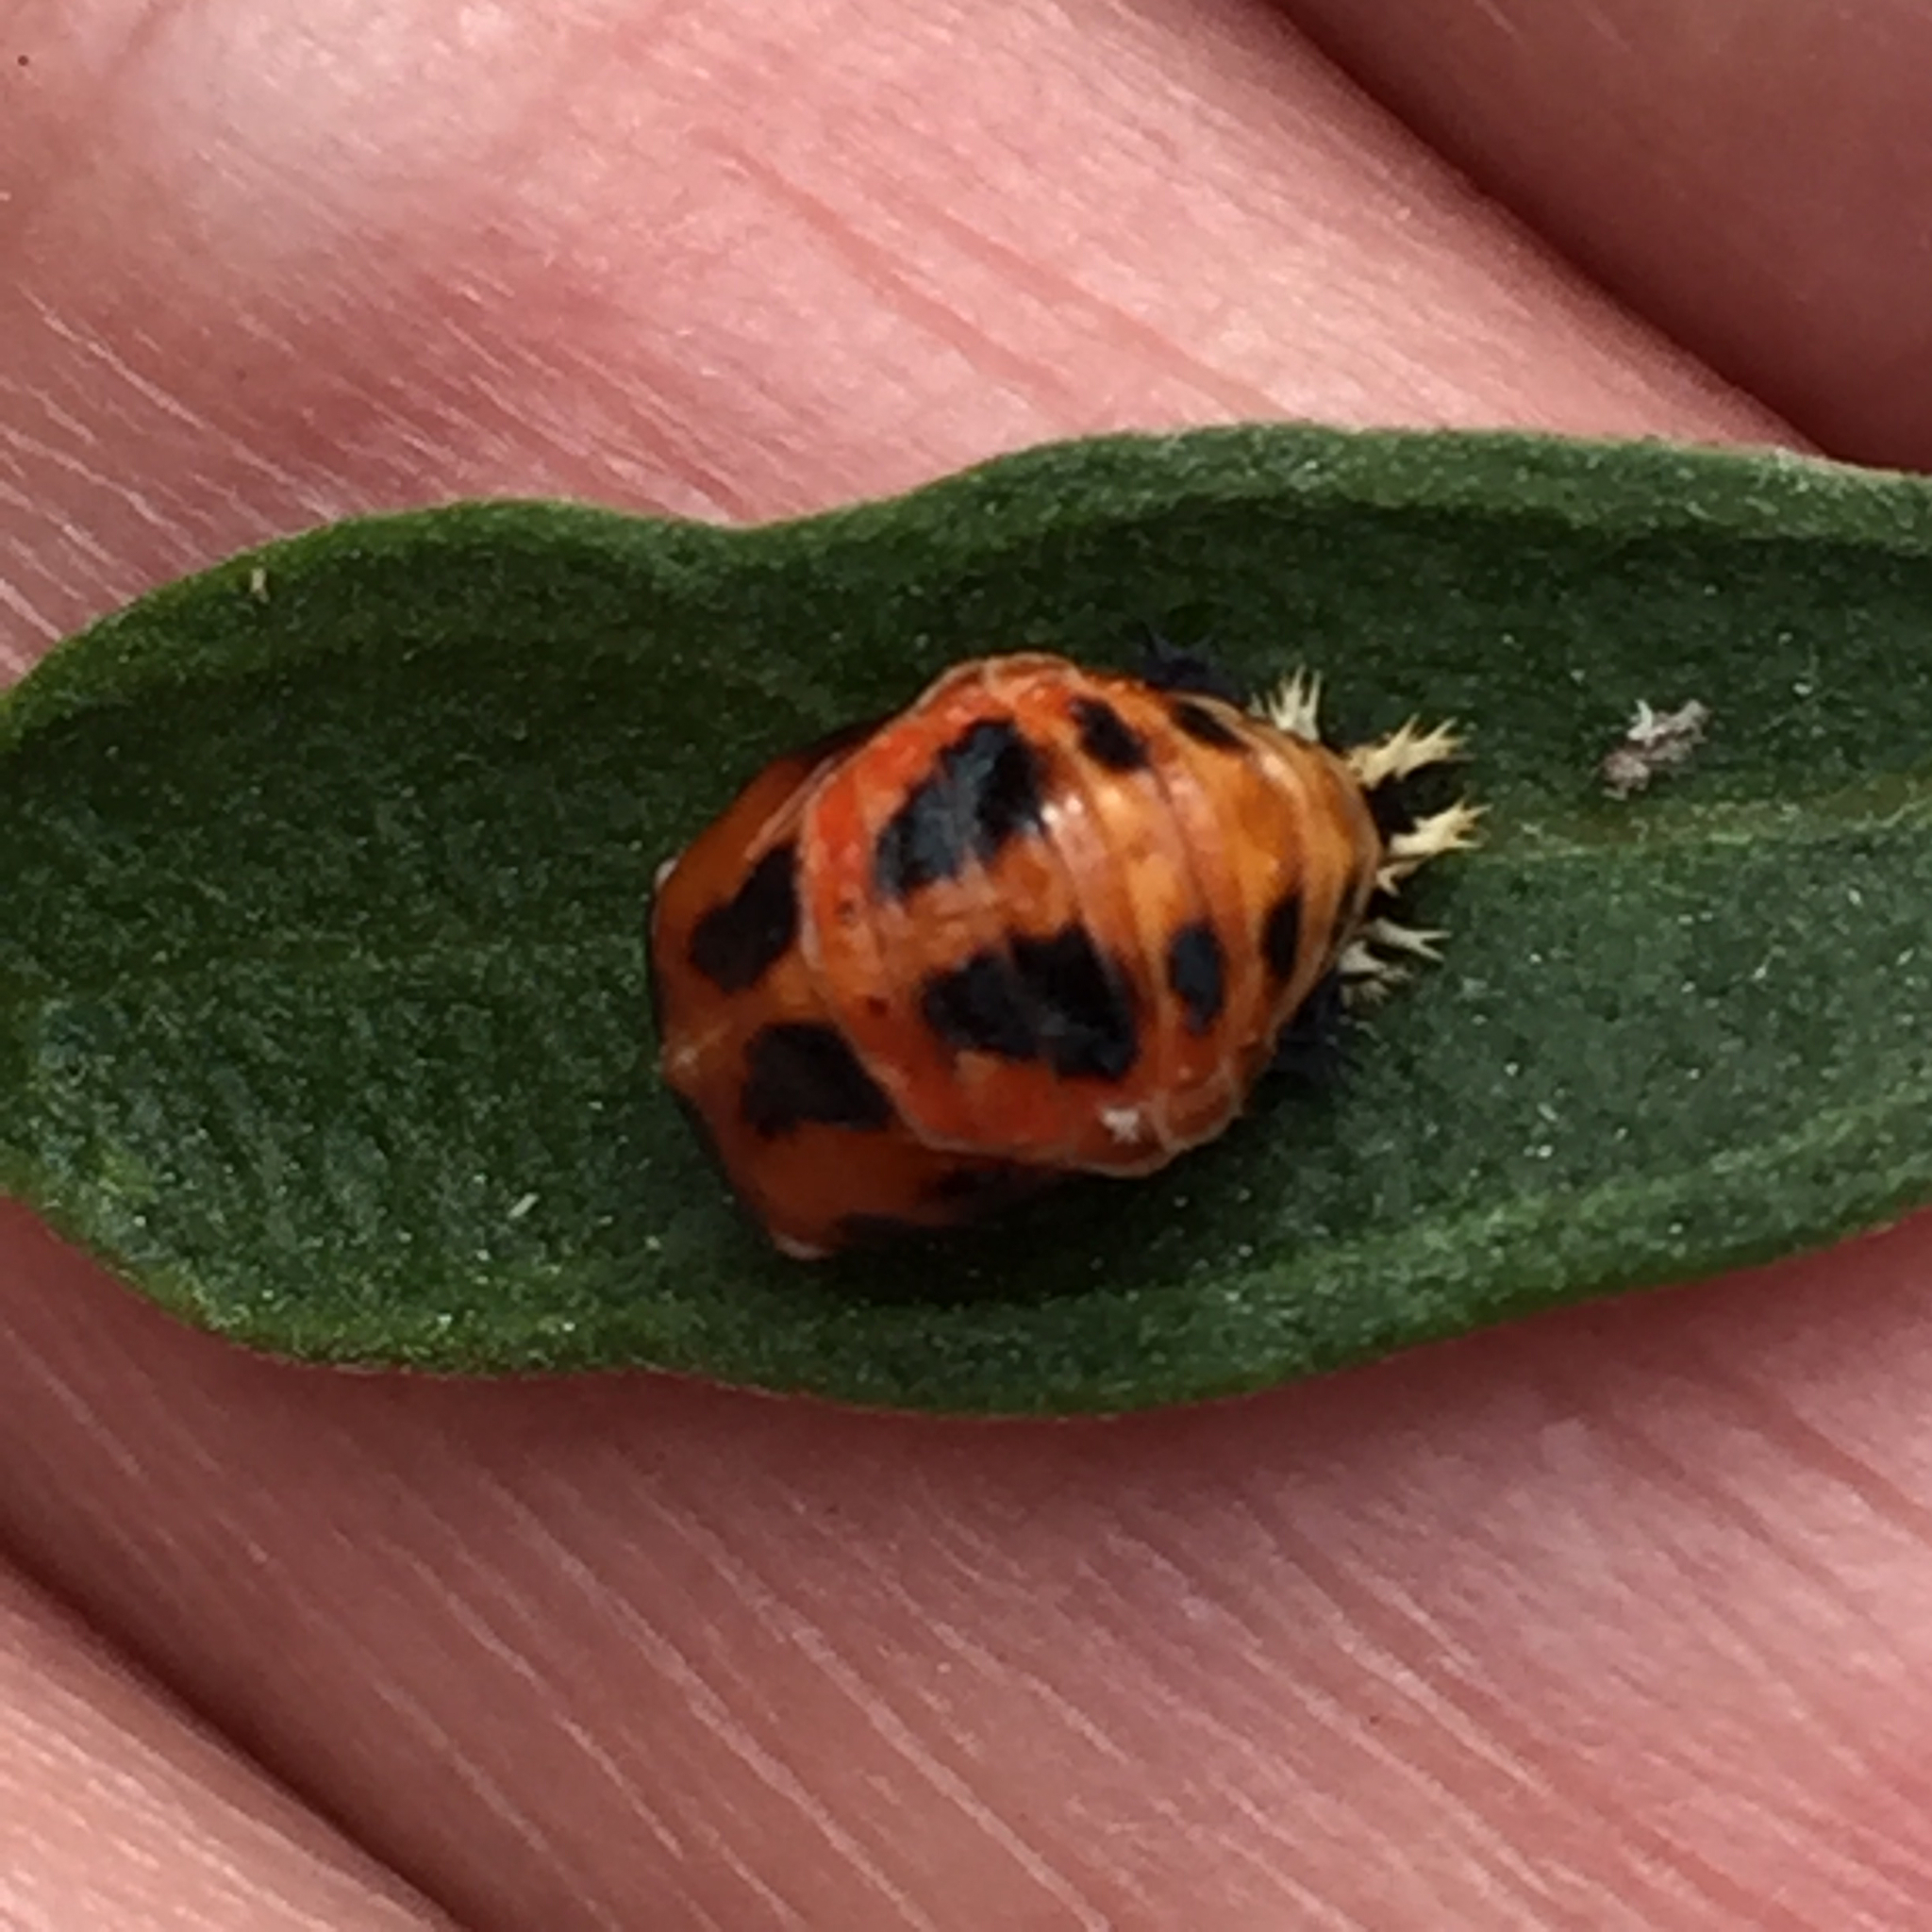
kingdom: Animalia
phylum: Arthropoda
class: Insecta
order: Coleoptera
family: Coccinellidae
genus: Harmonia
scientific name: Harmonia axyridis
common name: Harlequin ladybird
